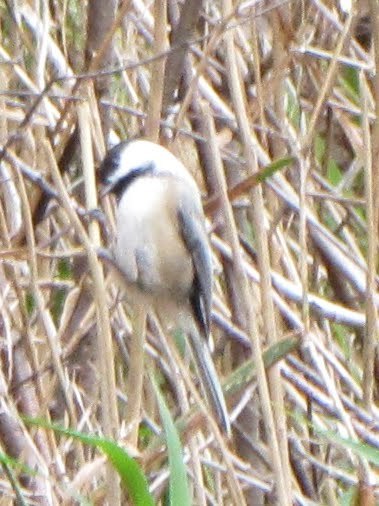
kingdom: Animalia
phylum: Chordata
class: Aves
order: Passeriformes
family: Paridae
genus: Poecile
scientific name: Poecile atricapillus
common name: Black-capped chickadee
